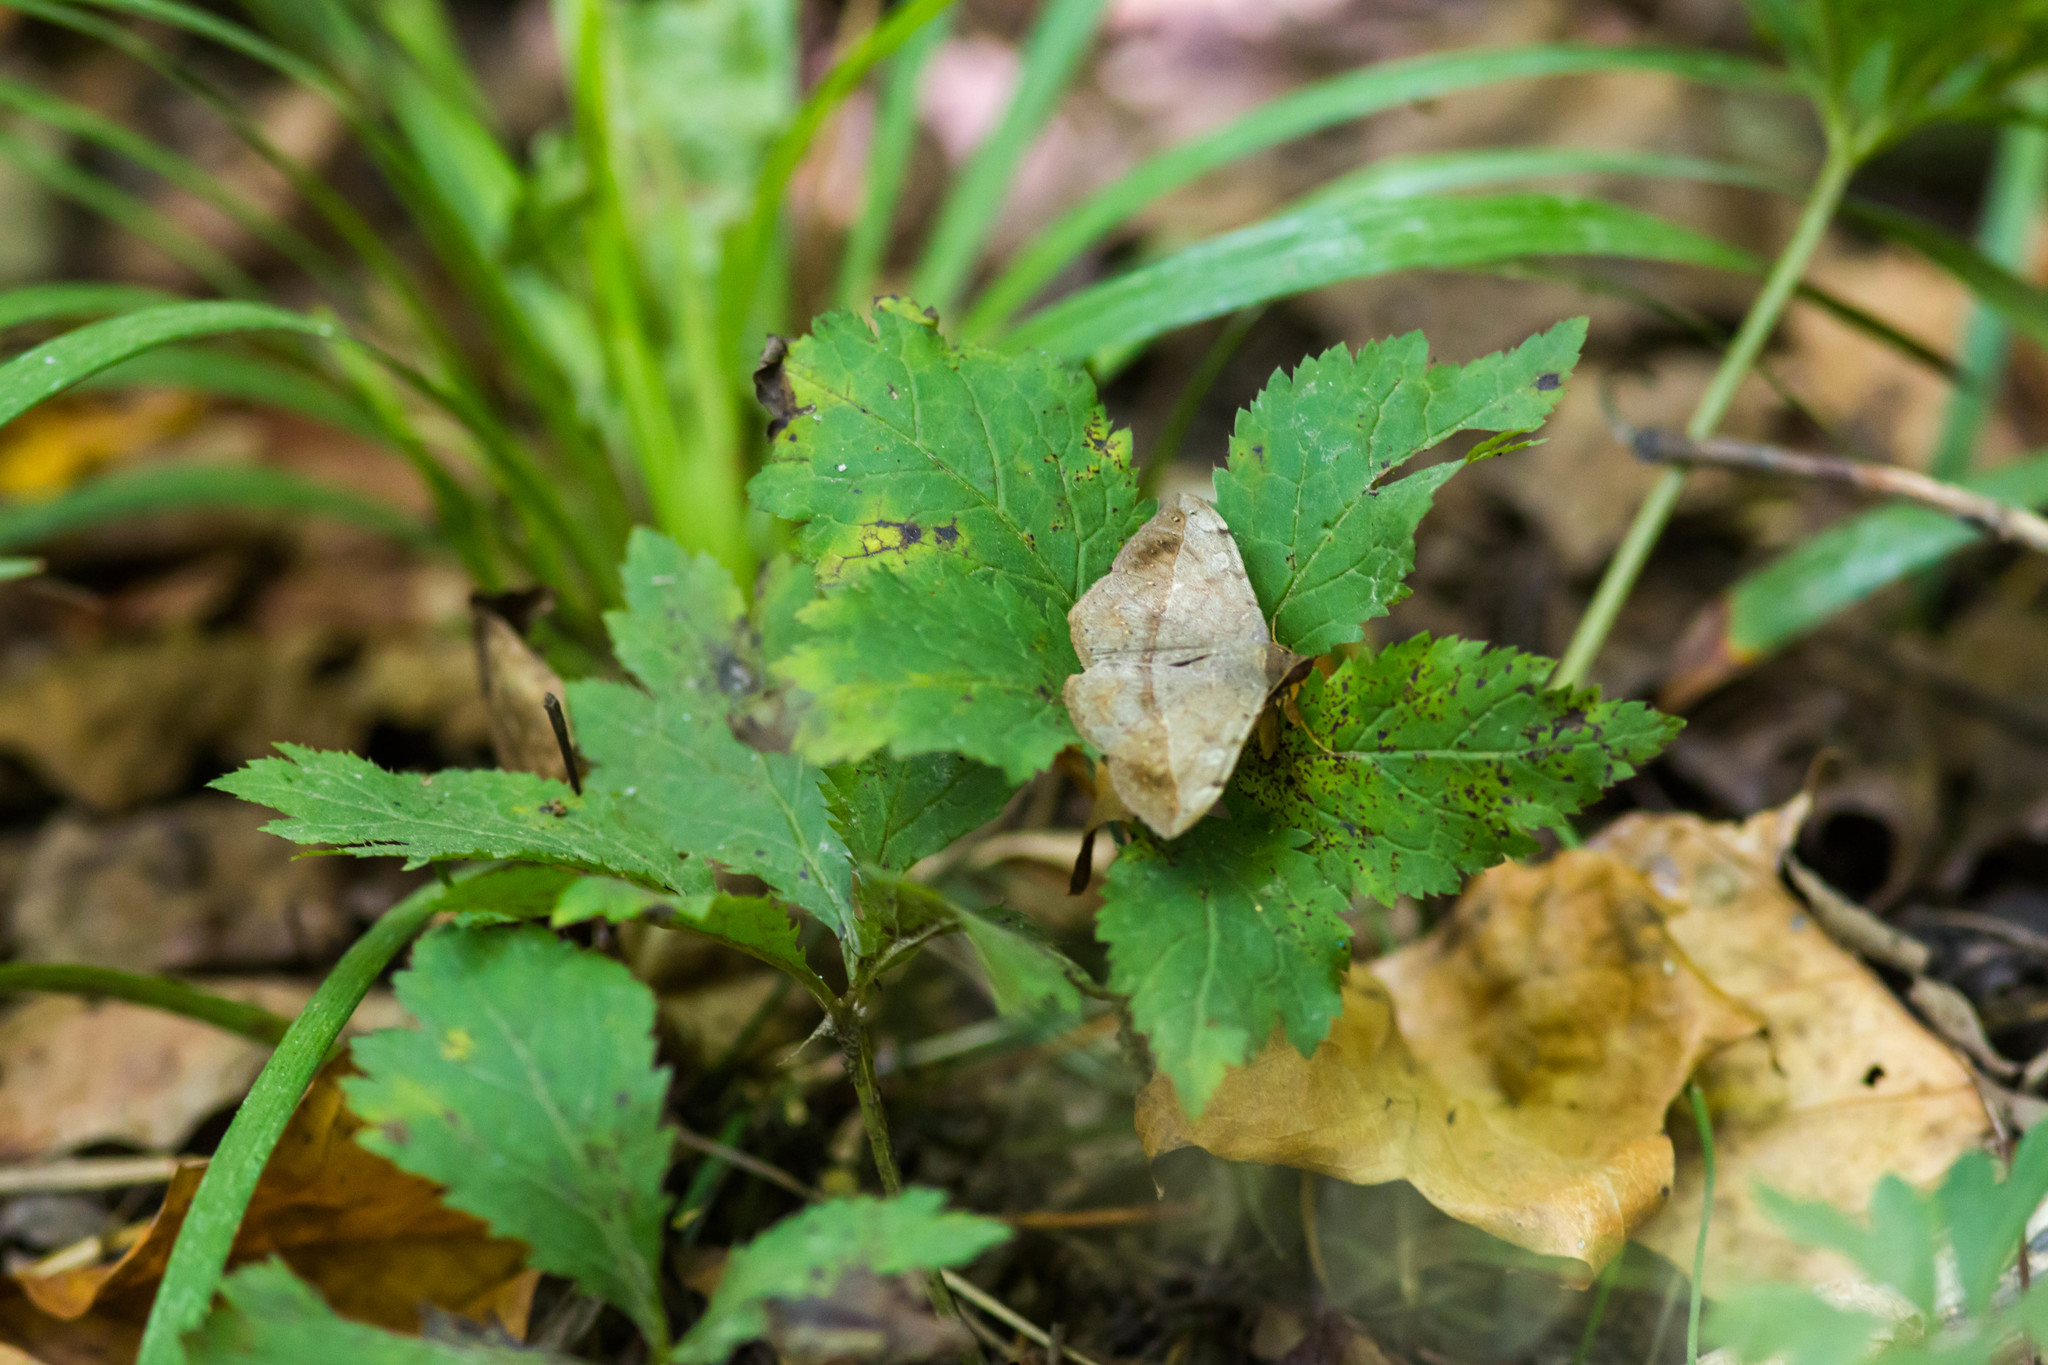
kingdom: Animalia
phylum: Arthropoda
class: Insecta
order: Lepidoptera
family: Erebidae
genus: Anticarsia
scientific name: Anticarsia gemmatalis
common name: Cutworm moth
